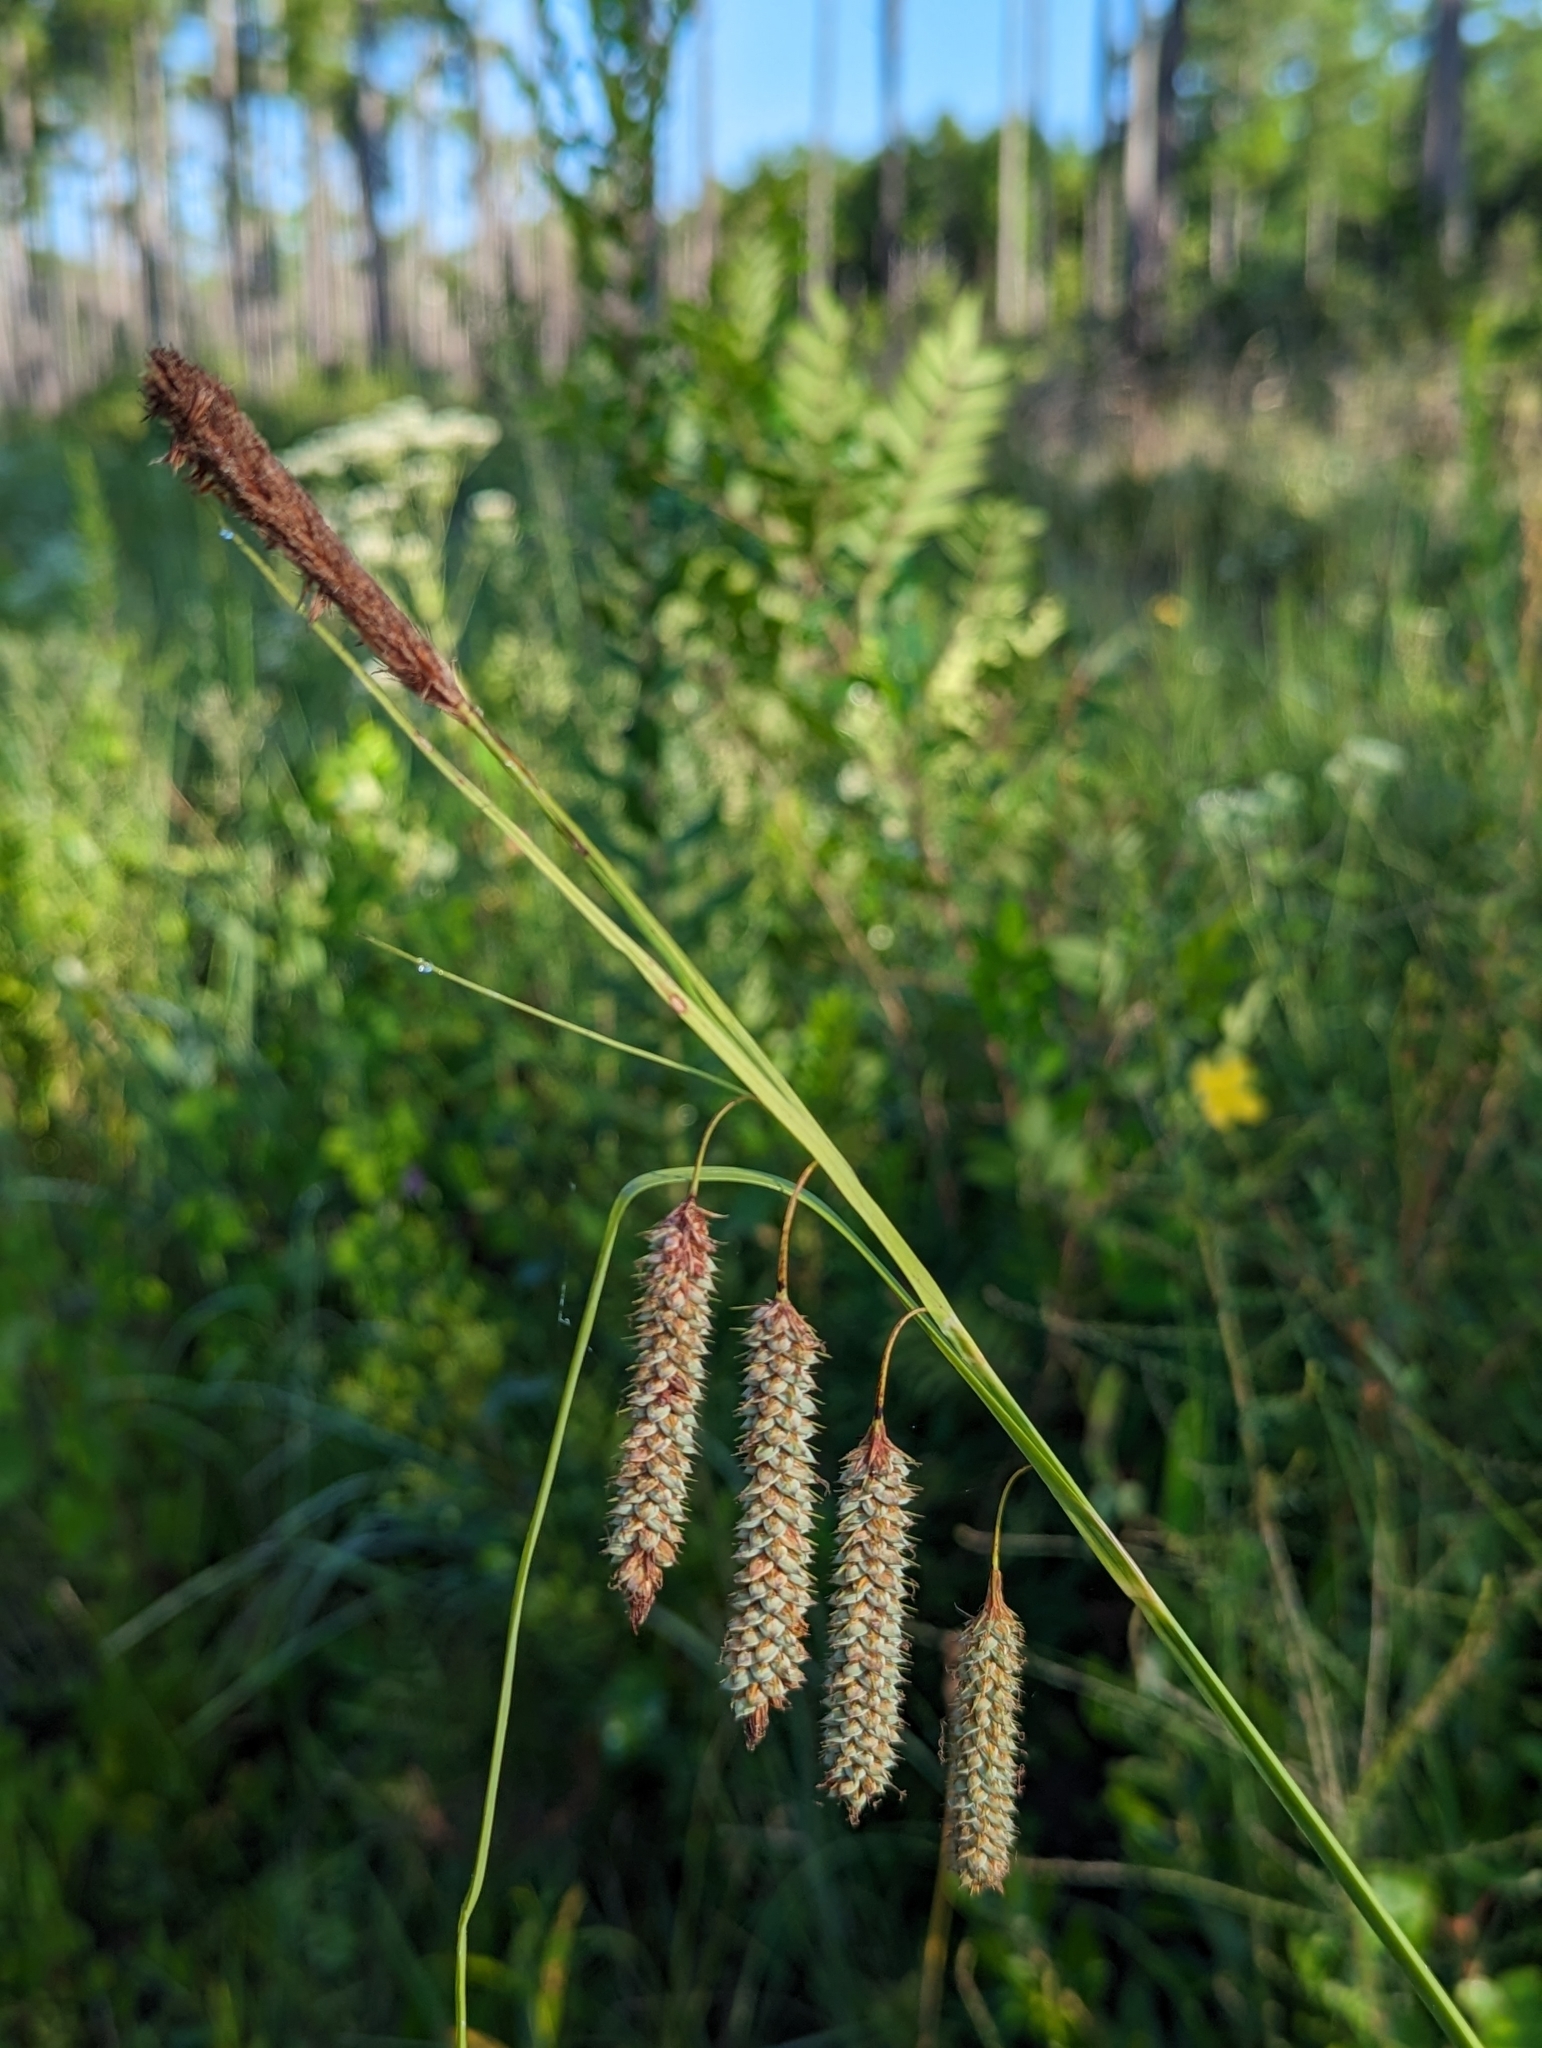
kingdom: Plantae
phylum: Tracheophyta
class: Liliopsida
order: Poales
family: Cyperaceae
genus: Carex
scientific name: Carex glaucescens
